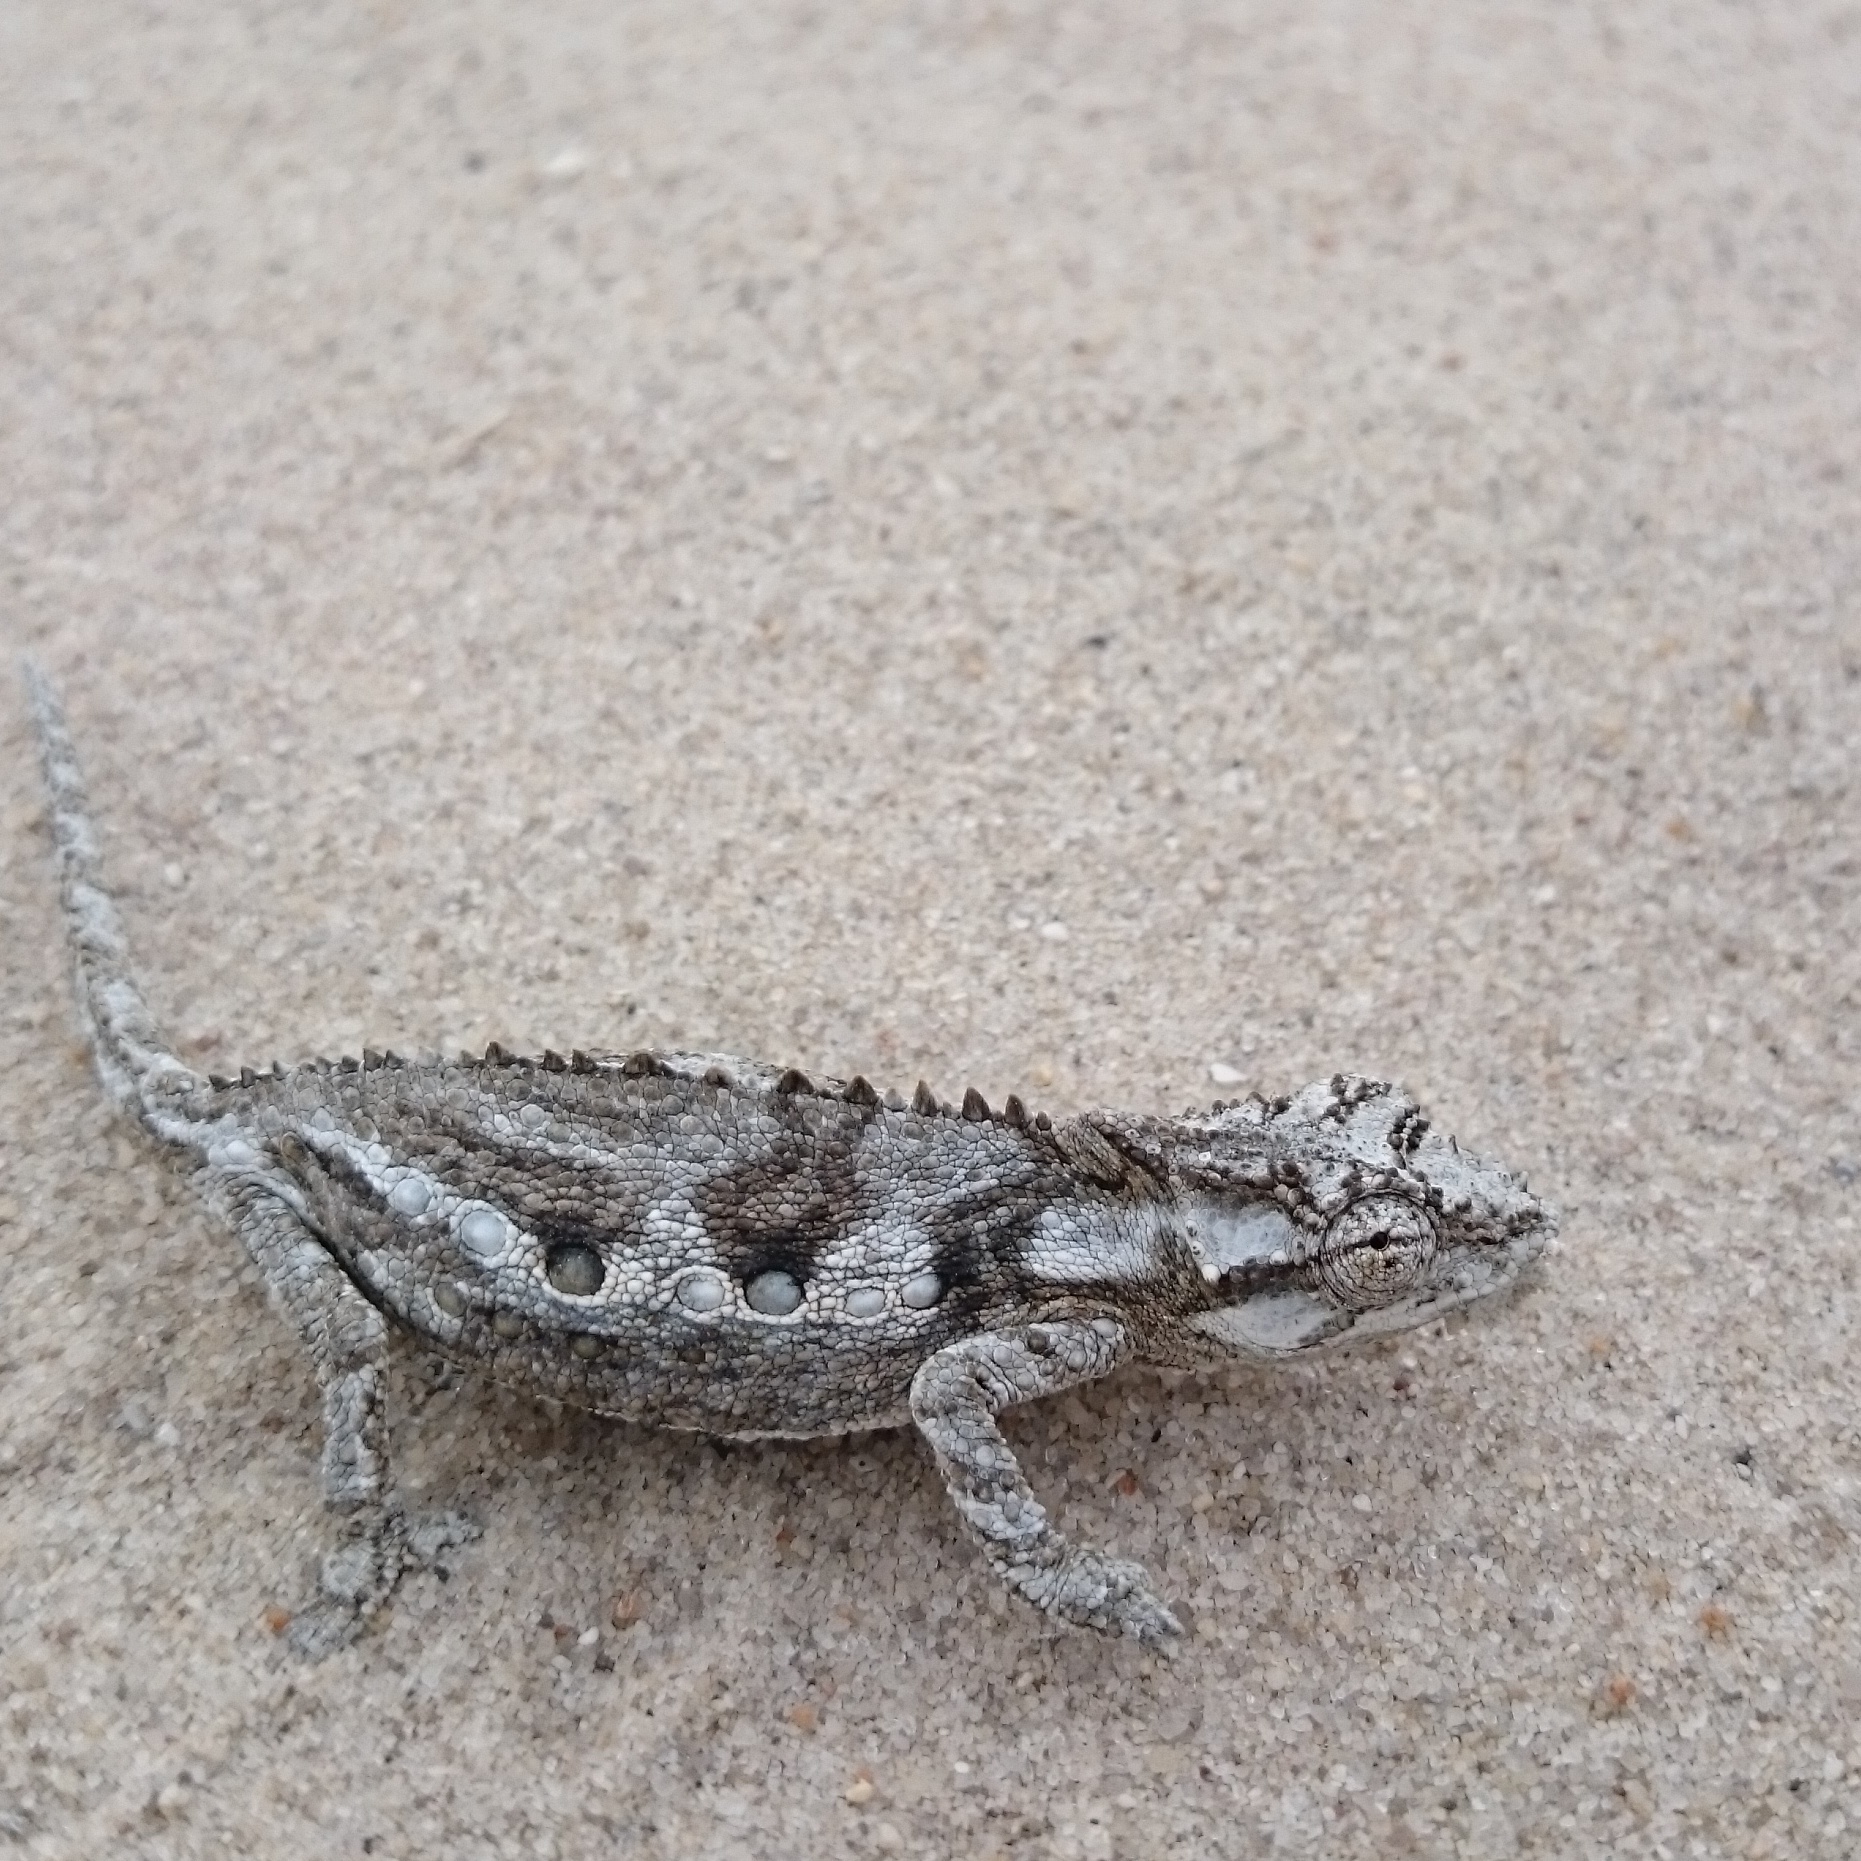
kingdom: Animalia
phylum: Chordata
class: Squamata
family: Chamaeleonidae
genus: Bradypodion
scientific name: Bradypodion occidentale
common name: Western dwarf chameleon
